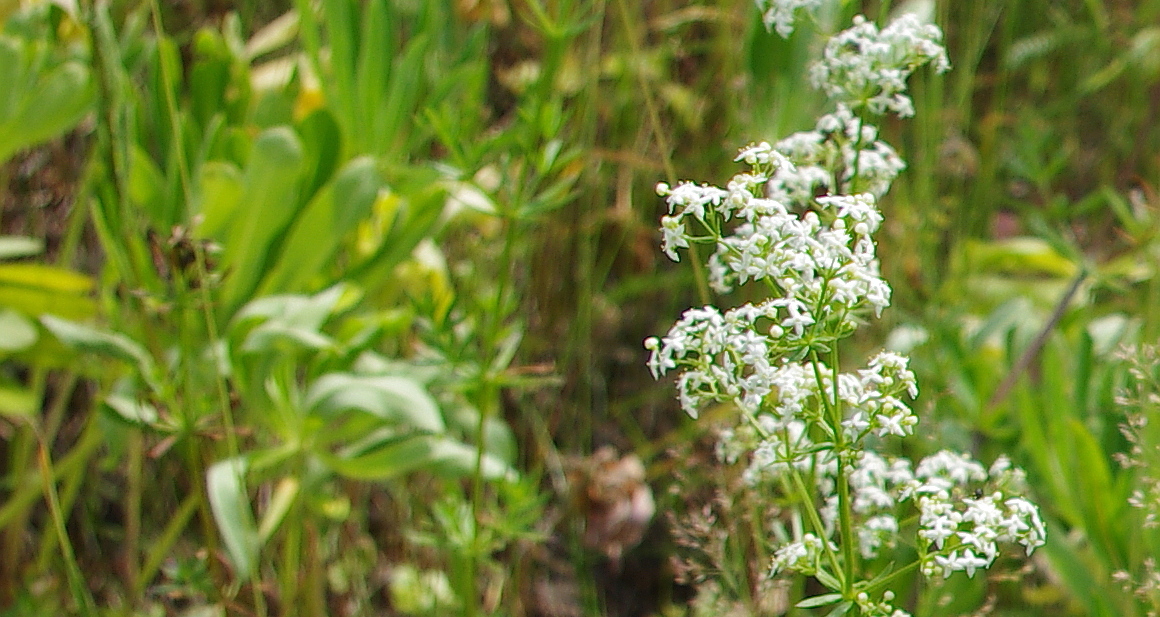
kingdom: Plantae
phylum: Tracheophyta
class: Magnoliopsida
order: Gentianales
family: Rubiaceae
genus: Galium
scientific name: Galium mollugo
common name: Hedge bedstraw
